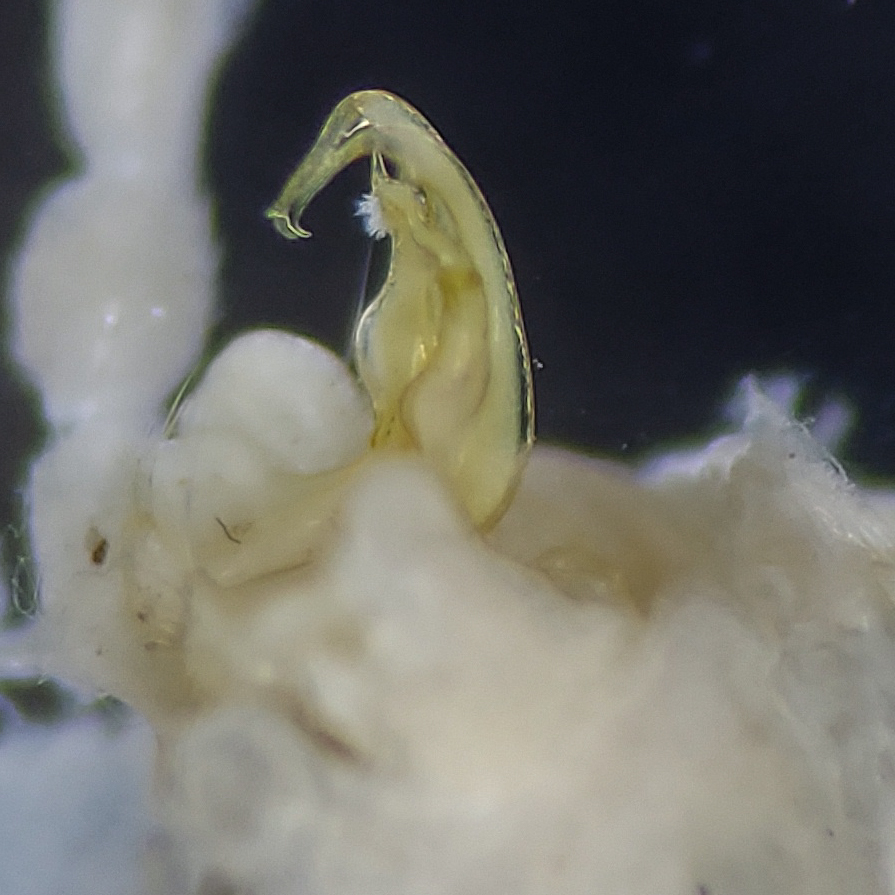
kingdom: Animalia
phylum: Arthropoda
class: Diplopoda
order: Polydesmida
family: Polydesmidae
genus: Polydesmus
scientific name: Polydesmus angustus
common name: Flat millipede
